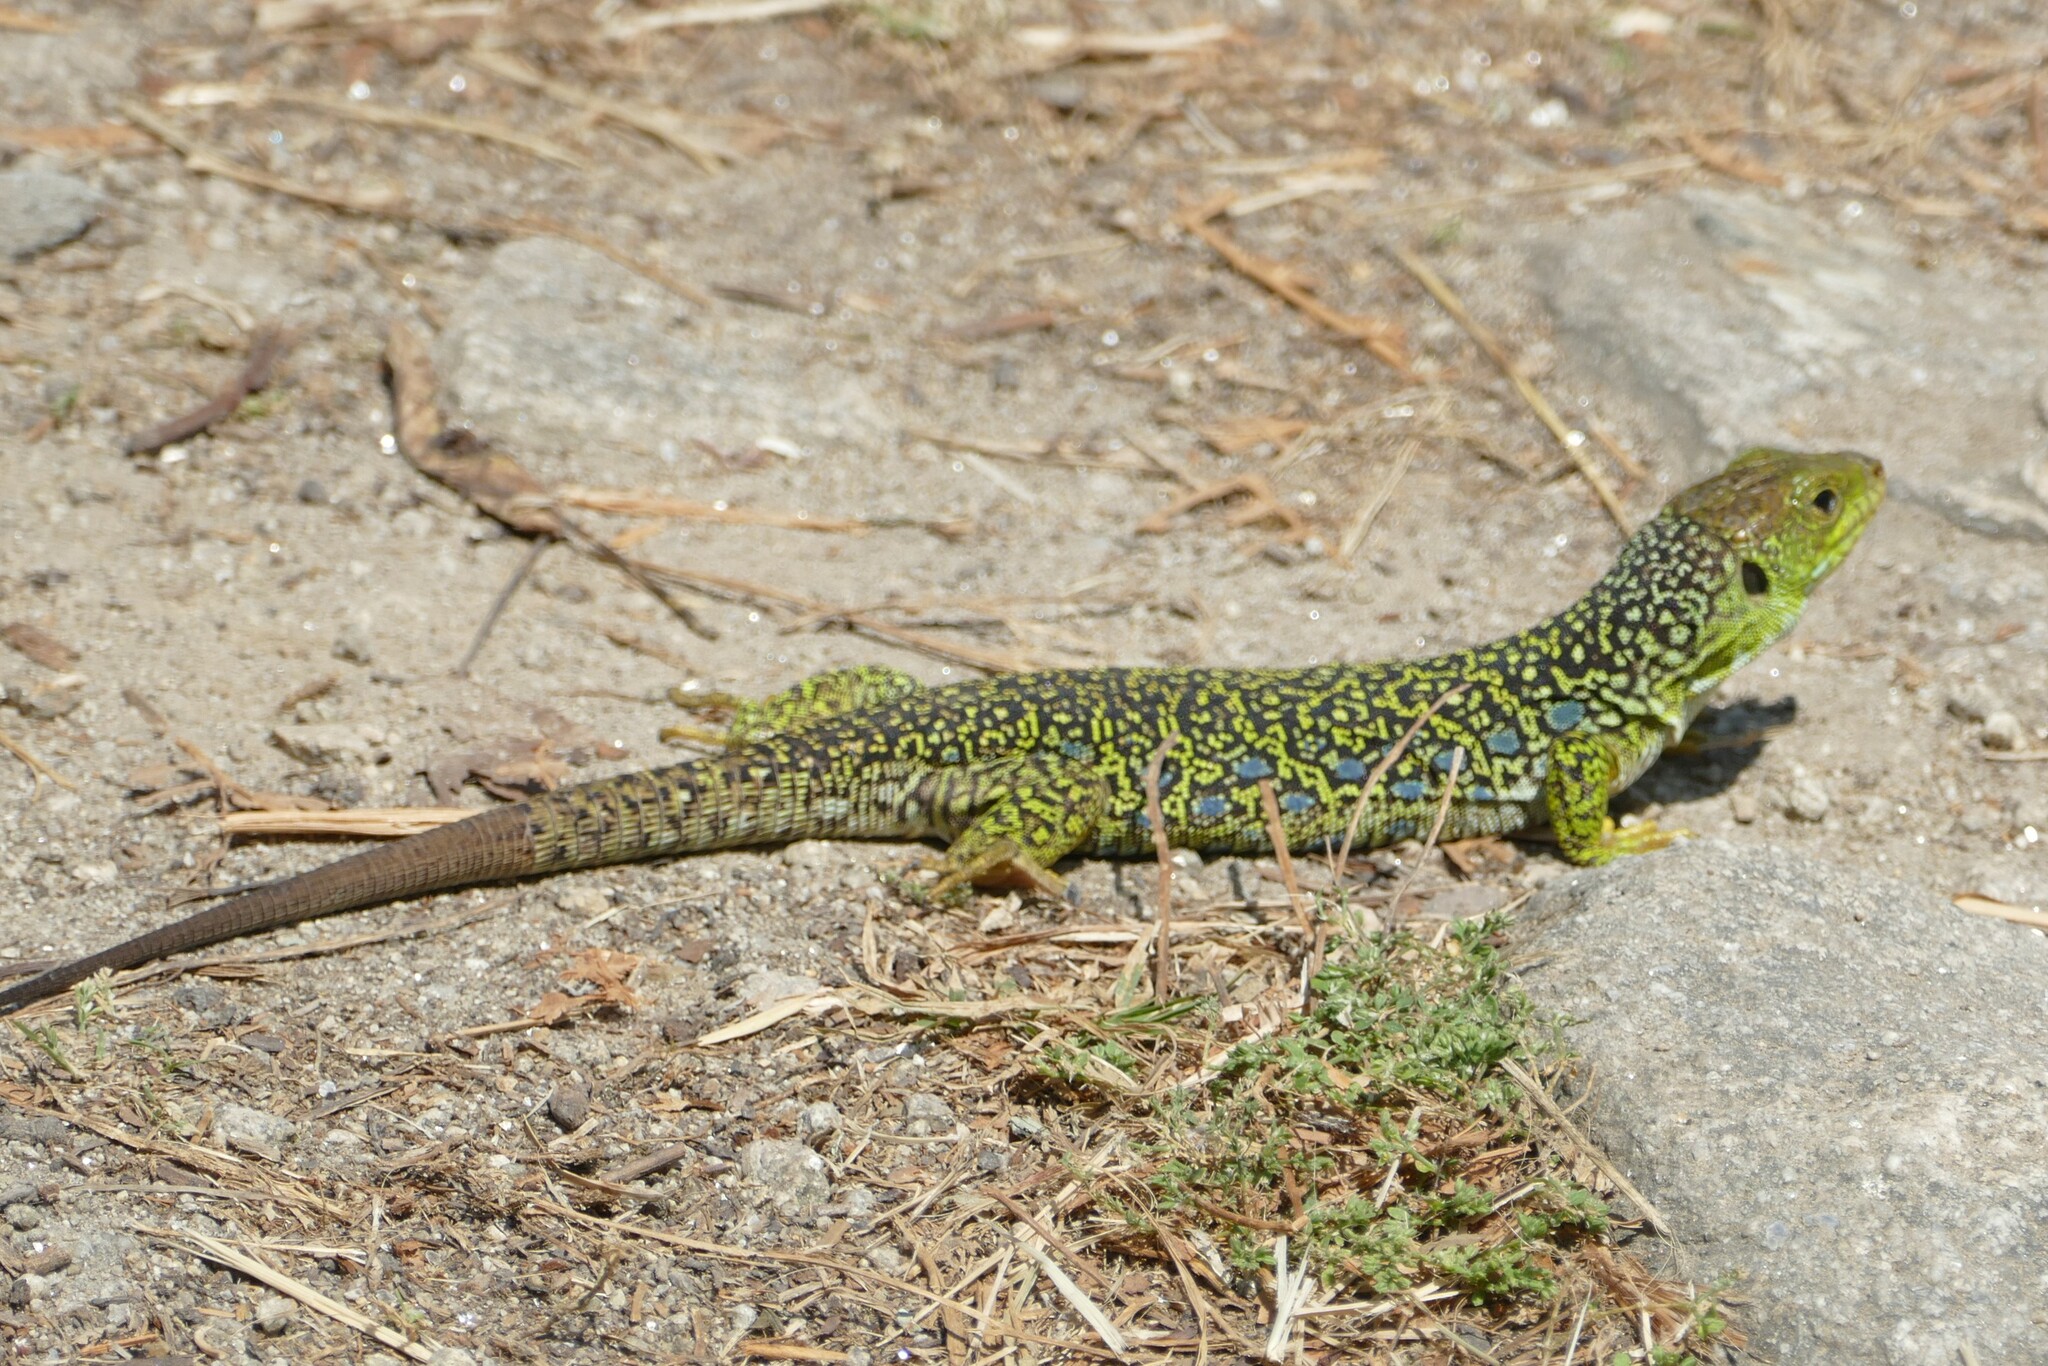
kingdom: Animalia
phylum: Chordata
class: Squamata
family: Lacertidae
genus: Timon
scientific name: Timon lepidus
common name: Ocellated lizard
